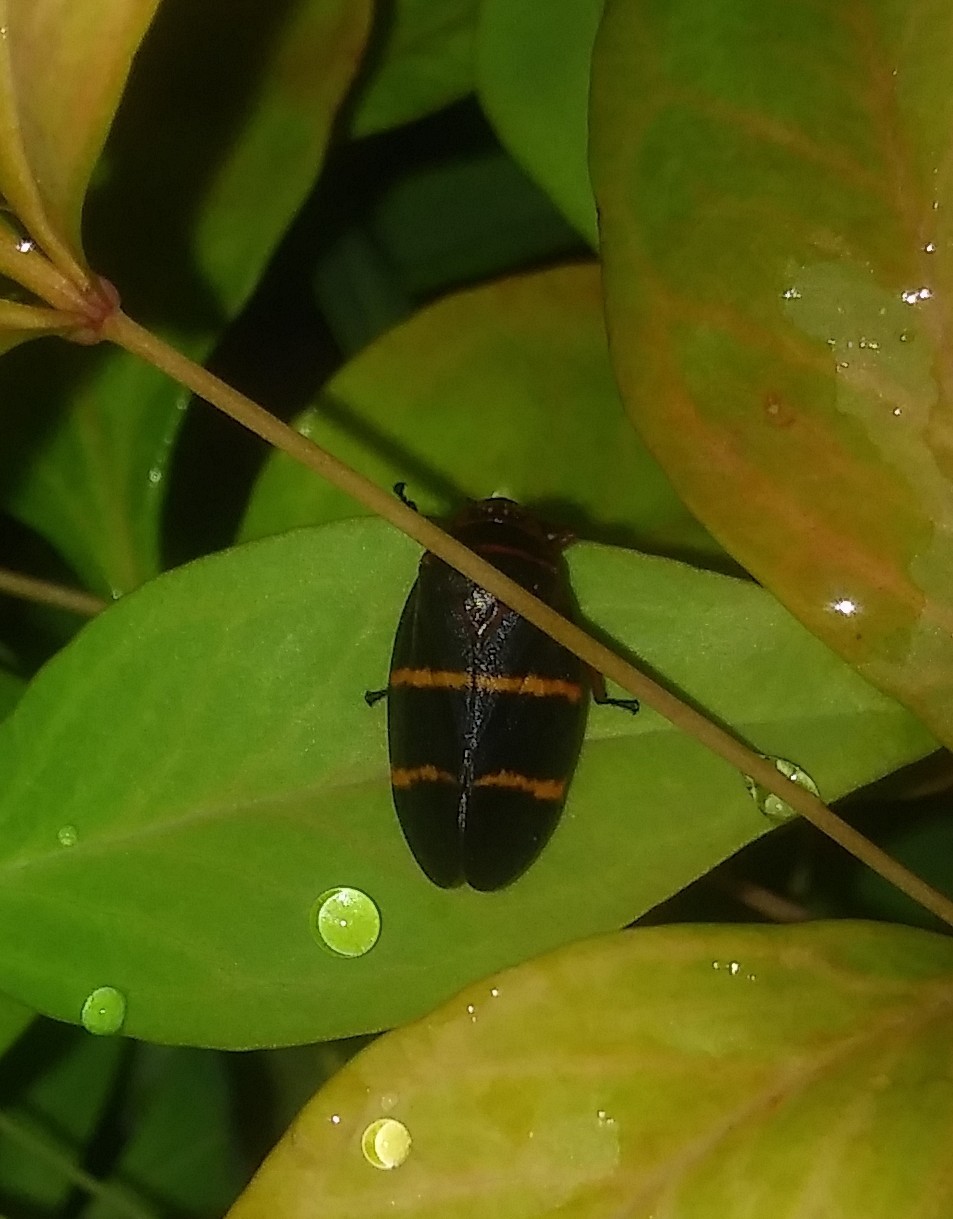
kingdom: Animalia
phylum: Arthropoda
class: Insecta
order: Hemiptera
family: Cercopidae
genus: Prosapia
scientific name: Prosapia bicincta
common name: Twolined spittlebug
